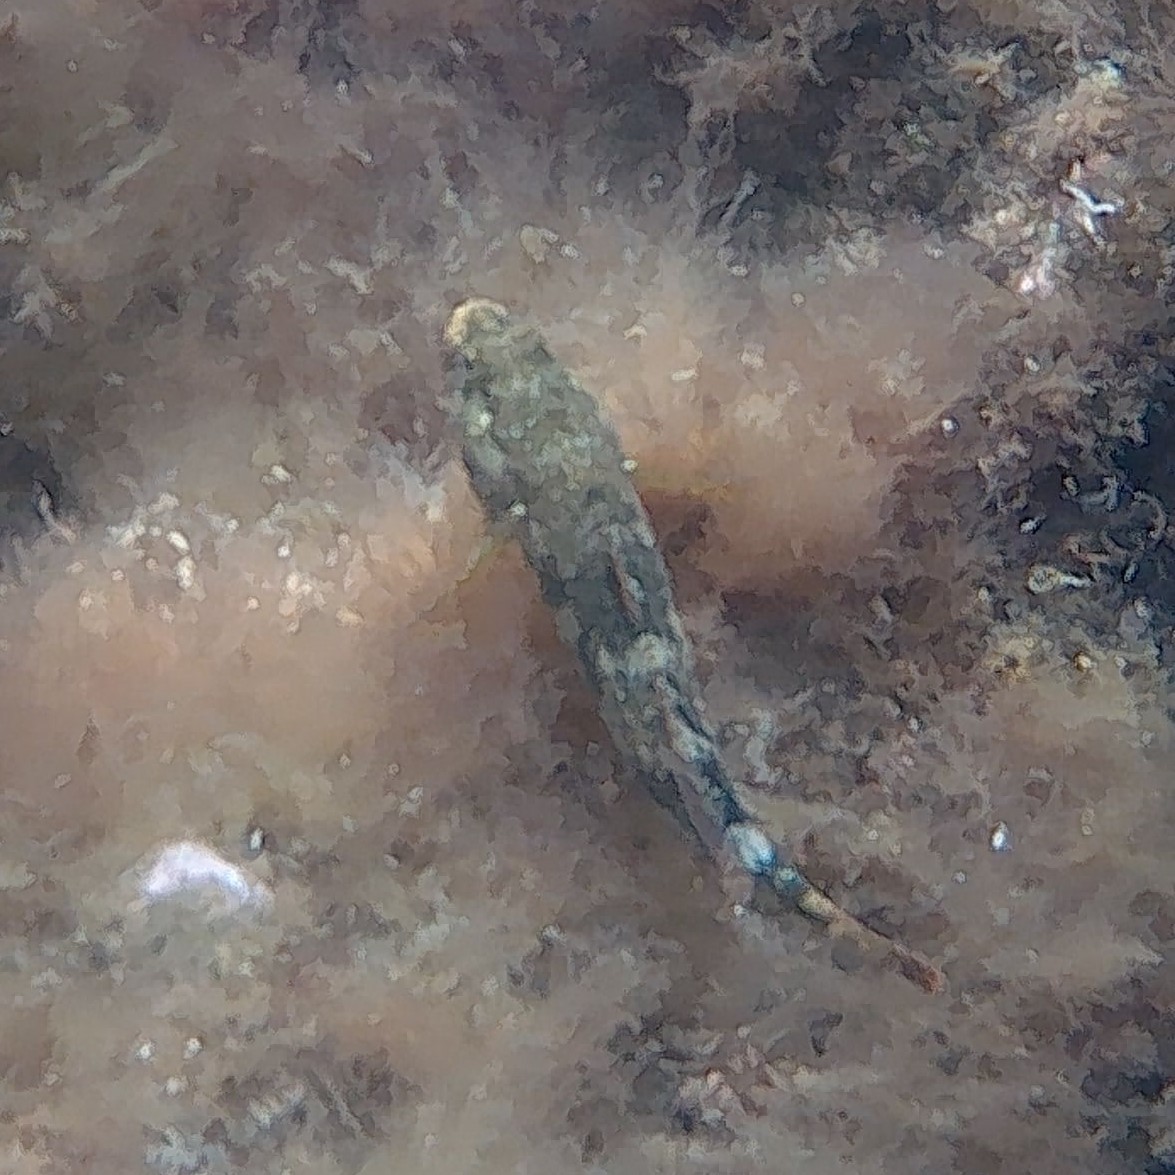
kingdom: Animalia
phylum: Chordata
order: Perciformes
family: Gobiidae
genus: Gobius
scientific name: Gobius cobitis
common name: Giant goby
